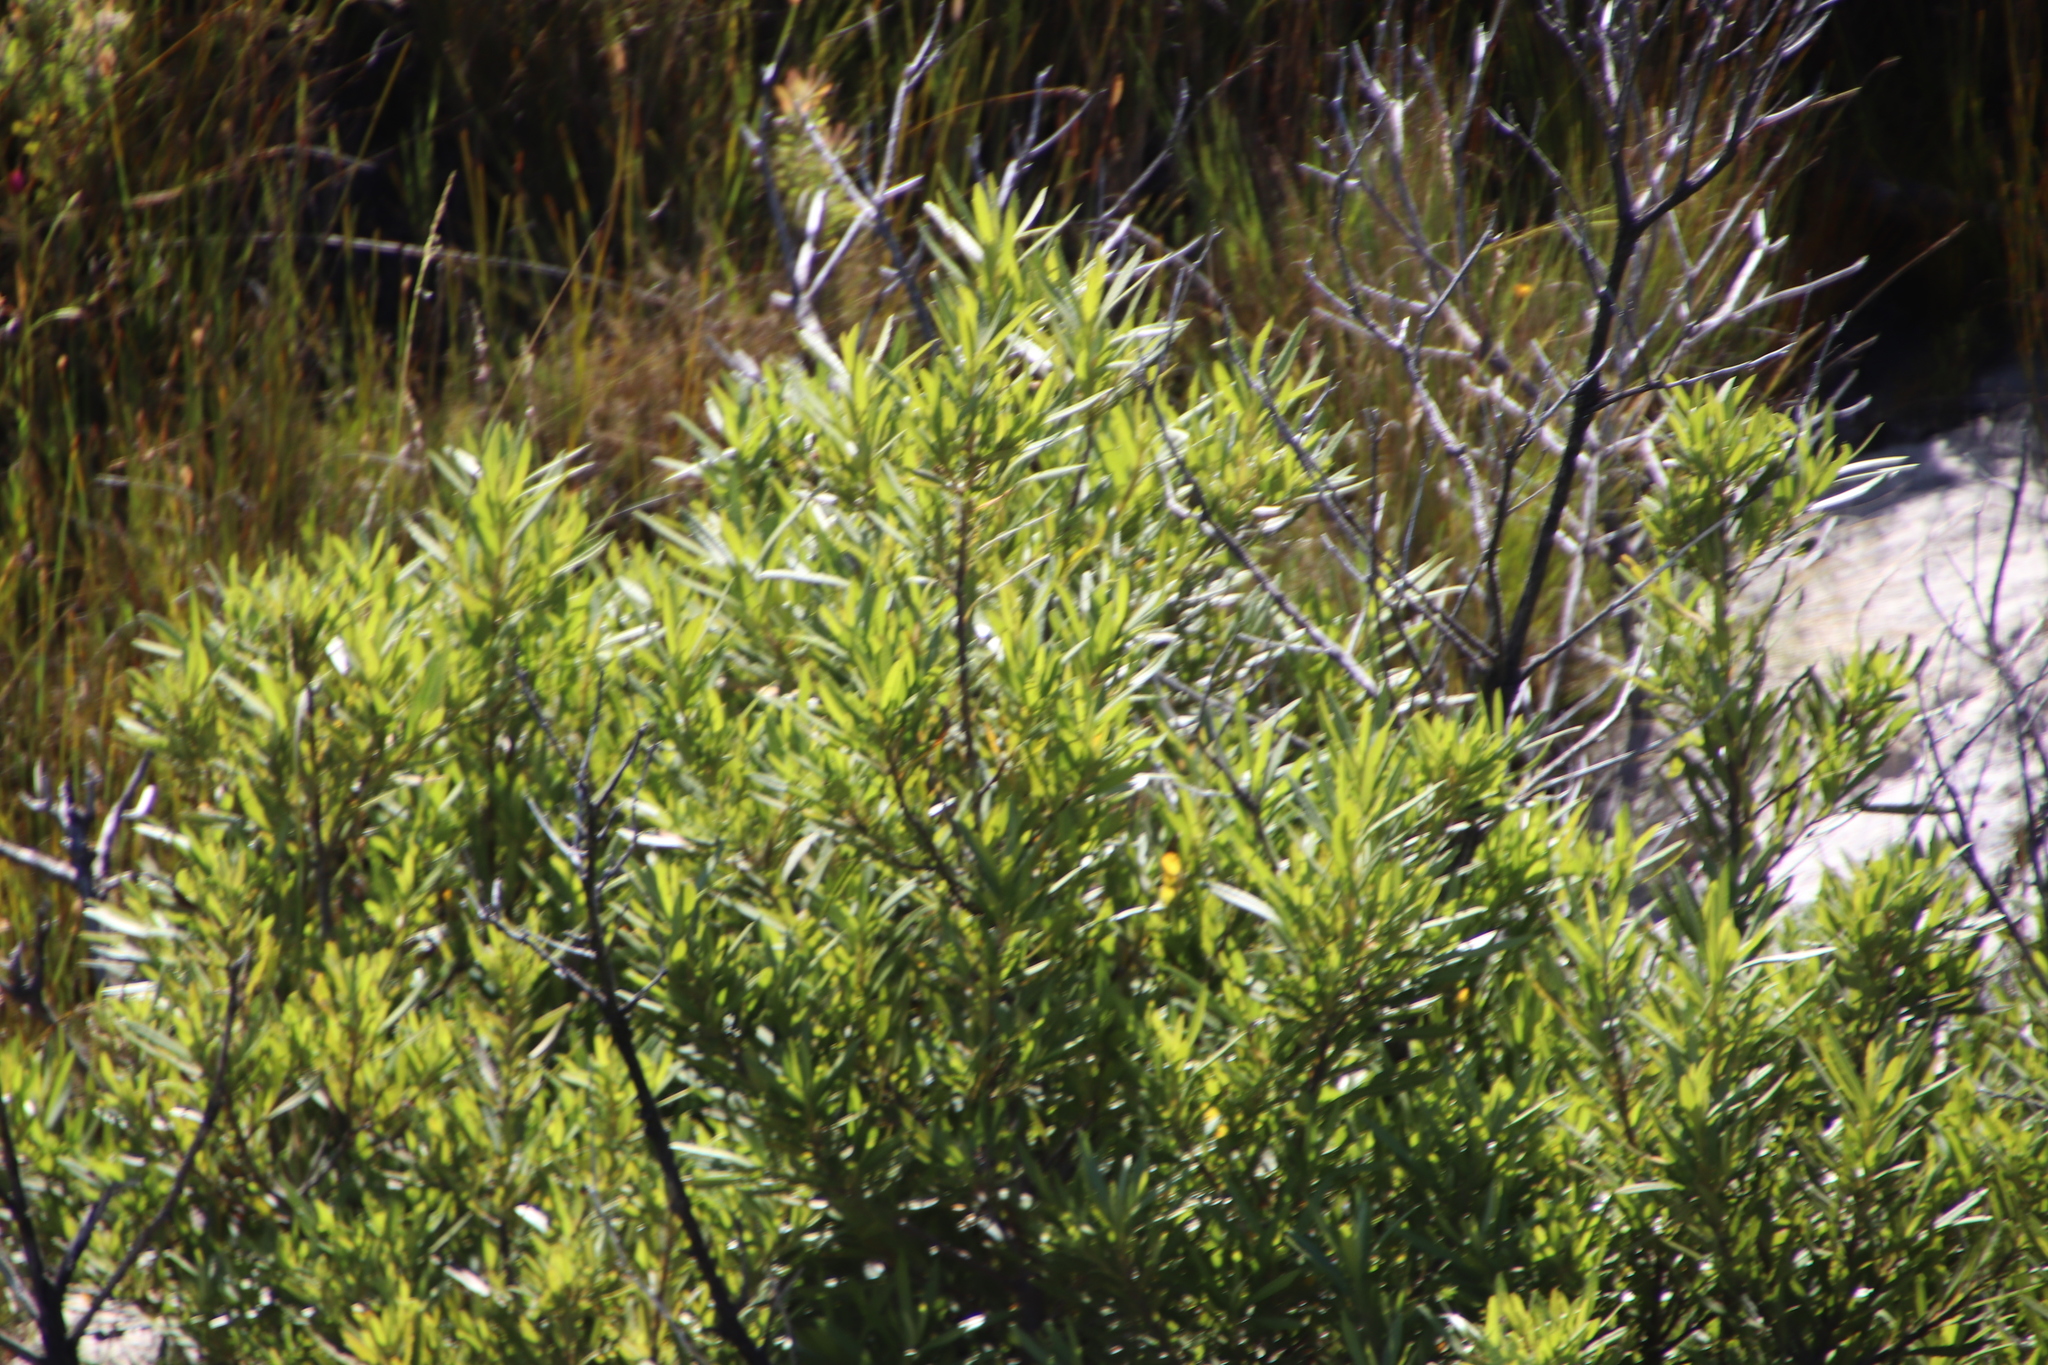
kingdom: Plantae
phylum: Tracheophyta
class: Magnoliopsida
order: Asterales
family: Asteraceae
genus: Brachylaena
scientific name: Brachylaena neriifolia
